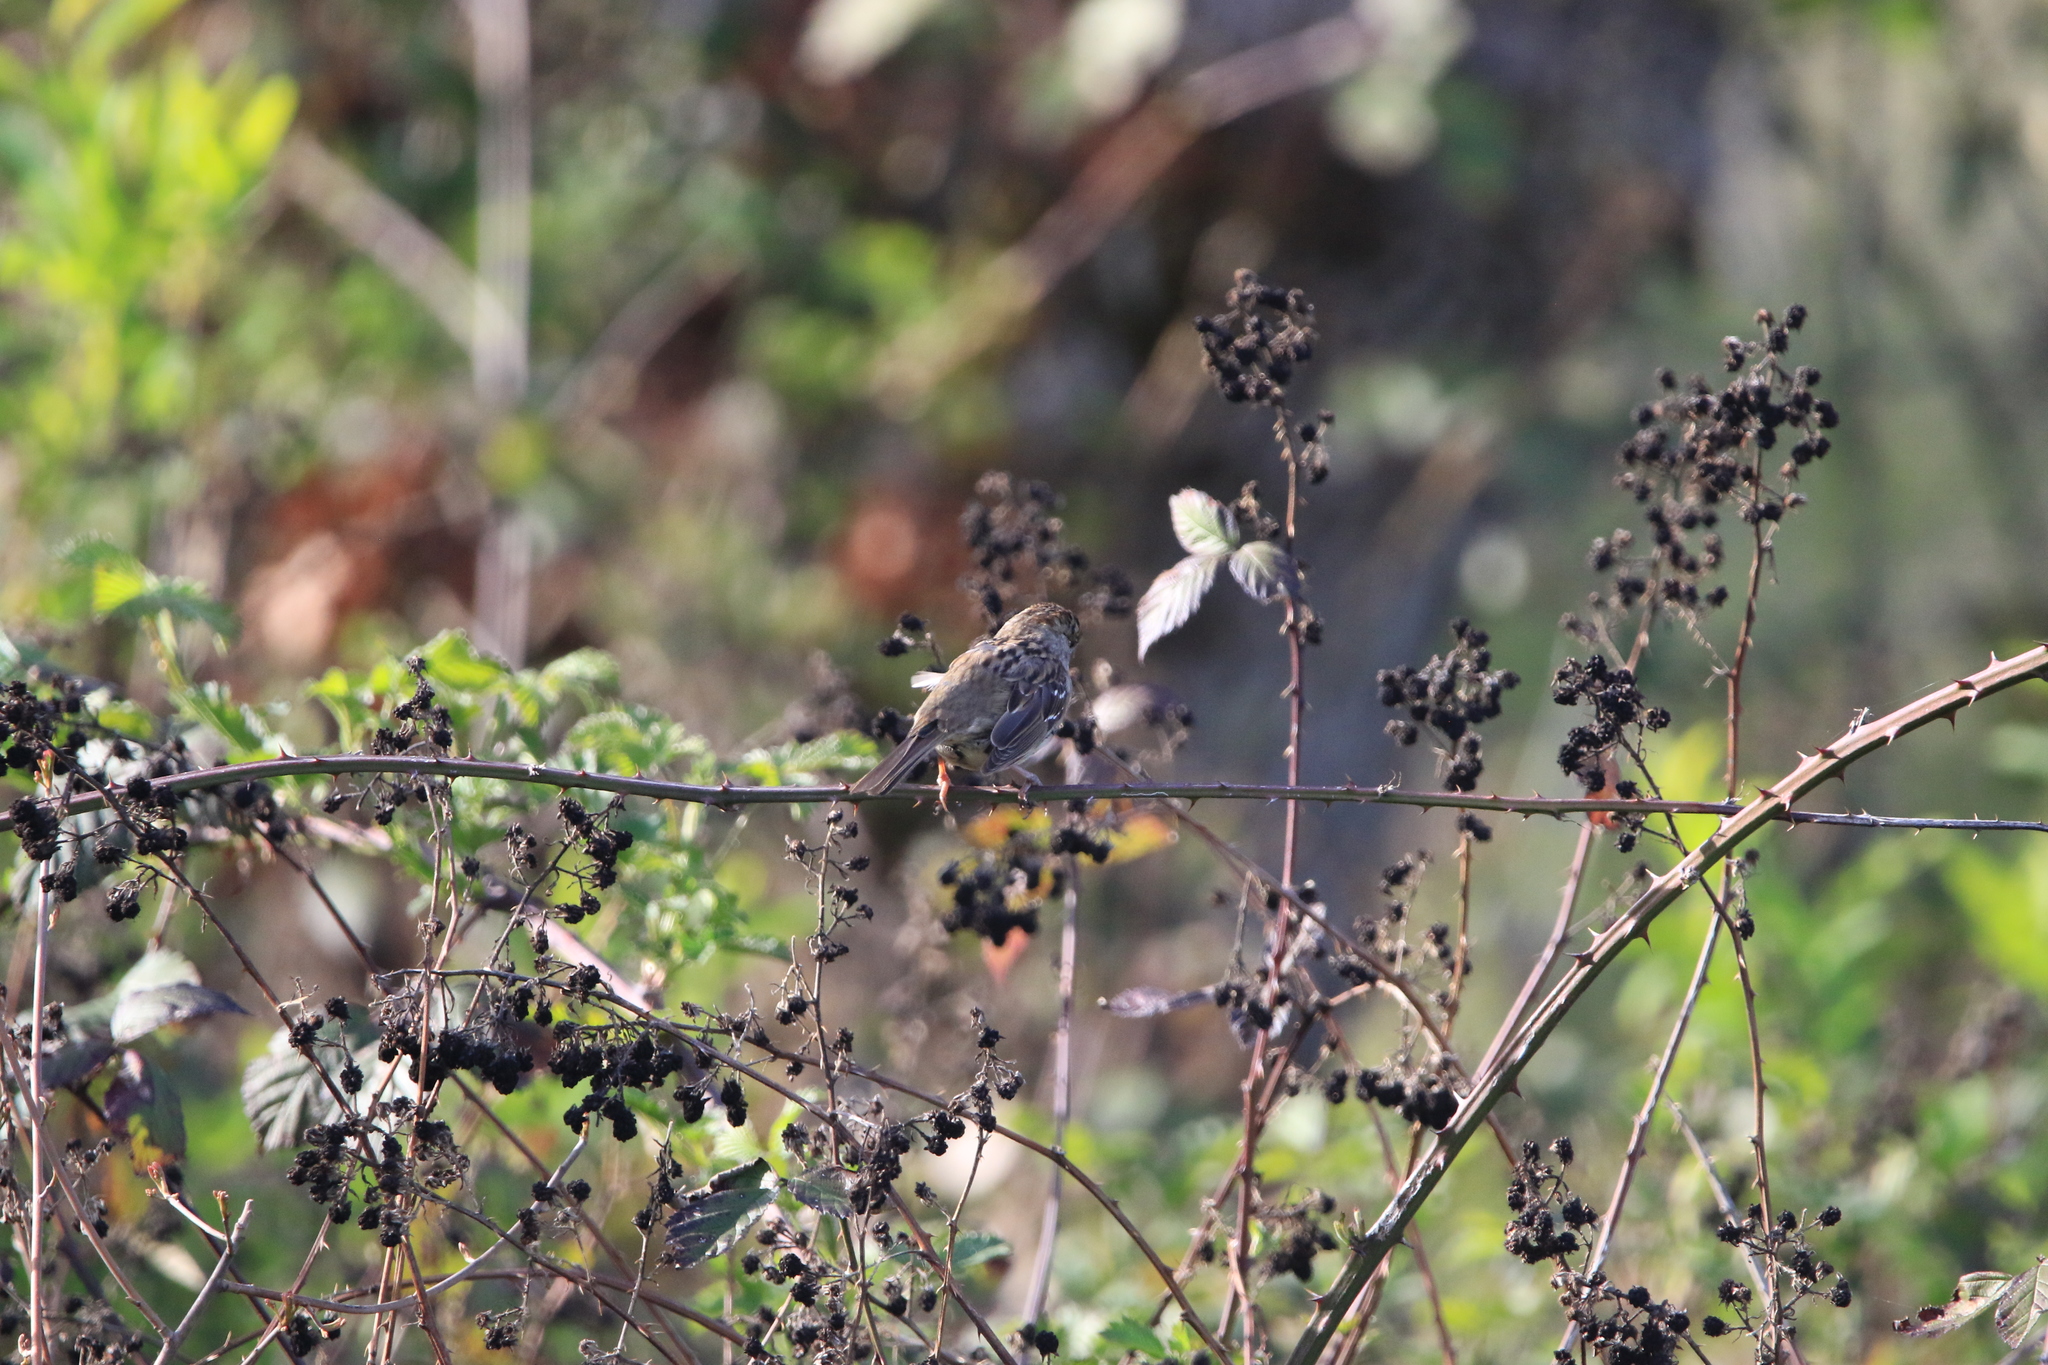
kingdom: Animalia
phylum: Chordata
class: Aves
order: Passeriformes
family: Passerellidae
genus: Zonotrichia
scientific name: Zonotrichia atricapilla
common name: Golden-crowned sparrow
